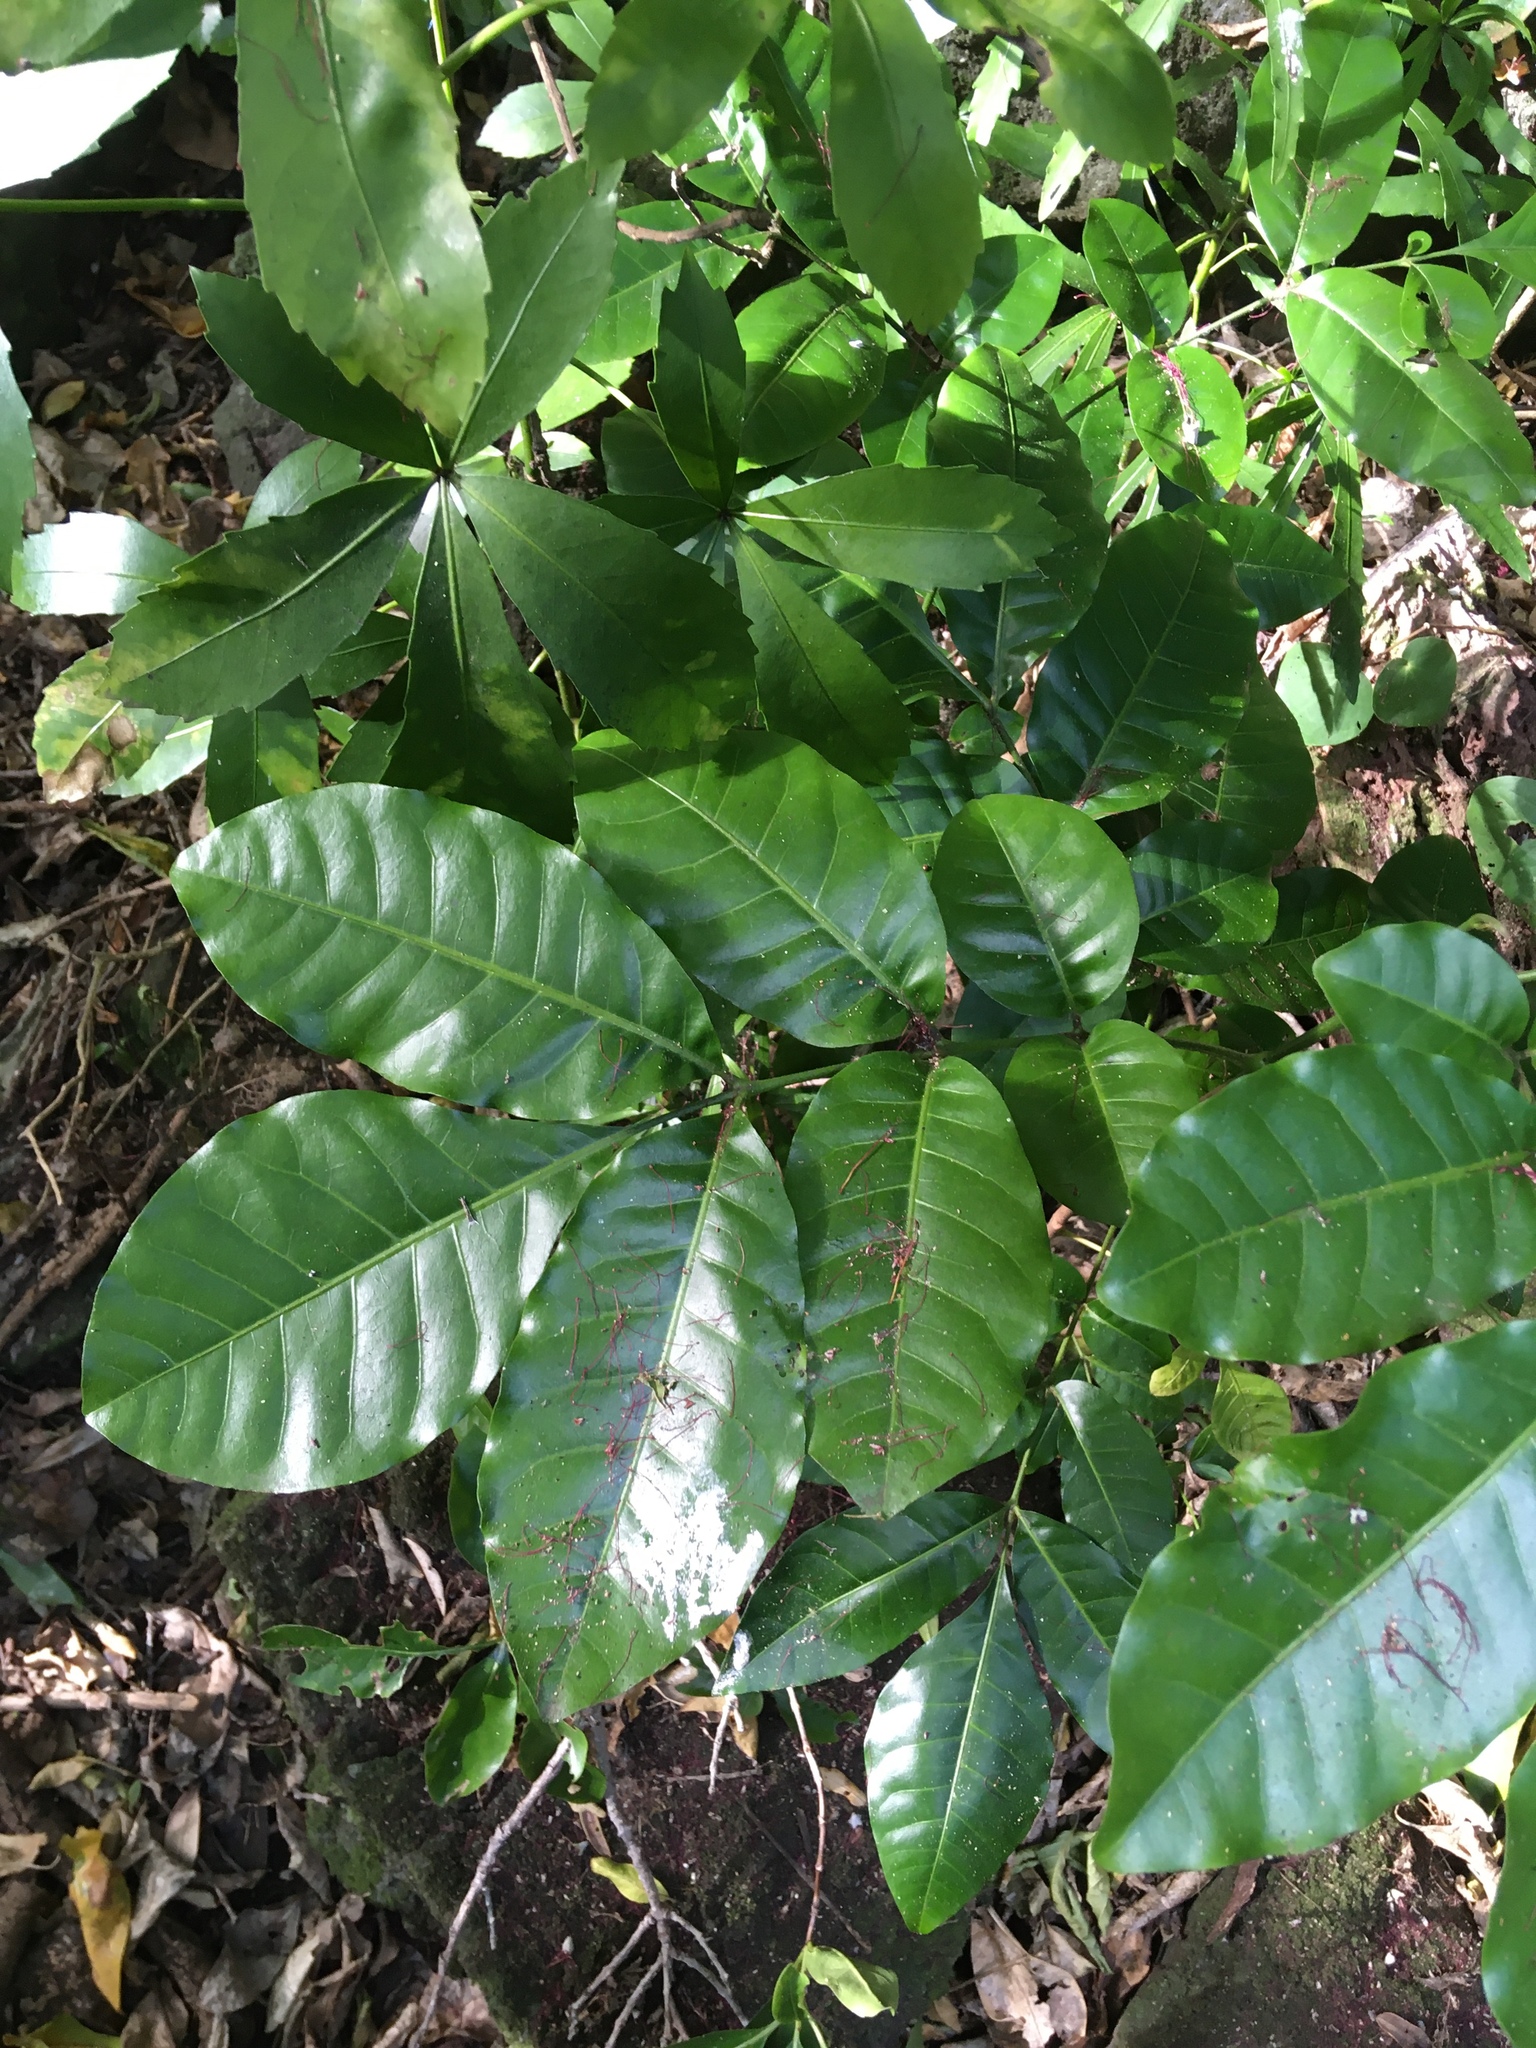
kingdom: Plantae
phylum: Tracheophyta
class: Magnoliopsida
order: Sapindales
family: Meliaceae
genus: Didymocheton
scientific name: Didymocheton spectabilis
